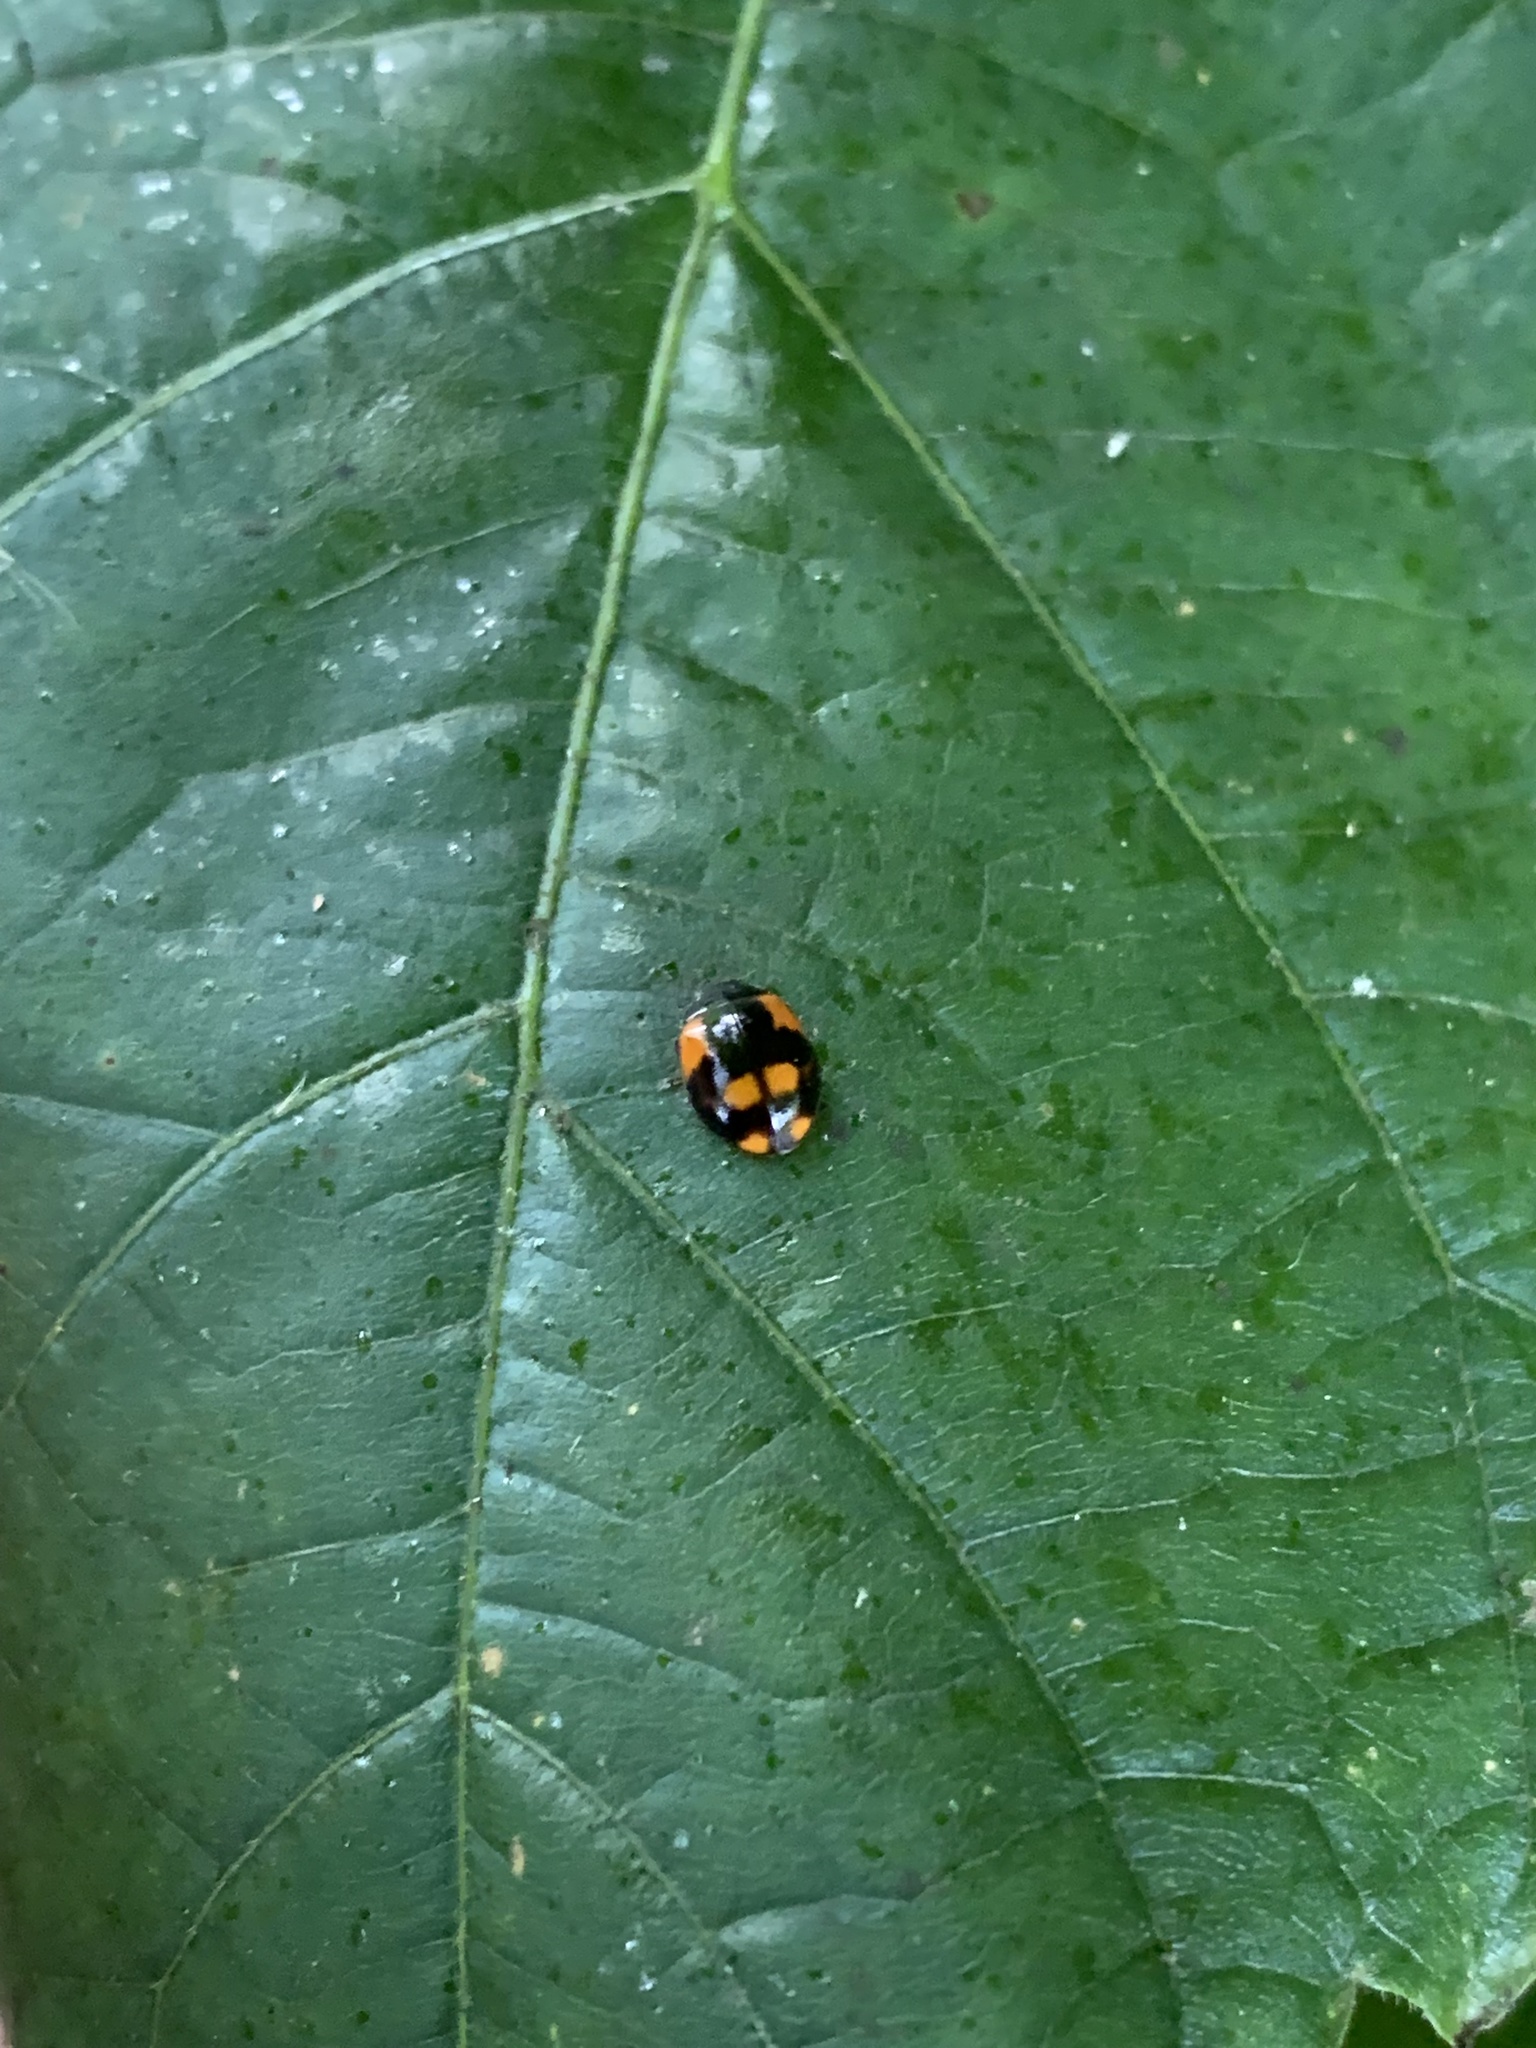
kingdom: Animalia
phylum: Arthropoda
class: Insecta
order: Coleoptera
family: Coccinellidae
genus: Adalia
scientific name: Adalia bipunctata
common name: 2-spot ladybird
